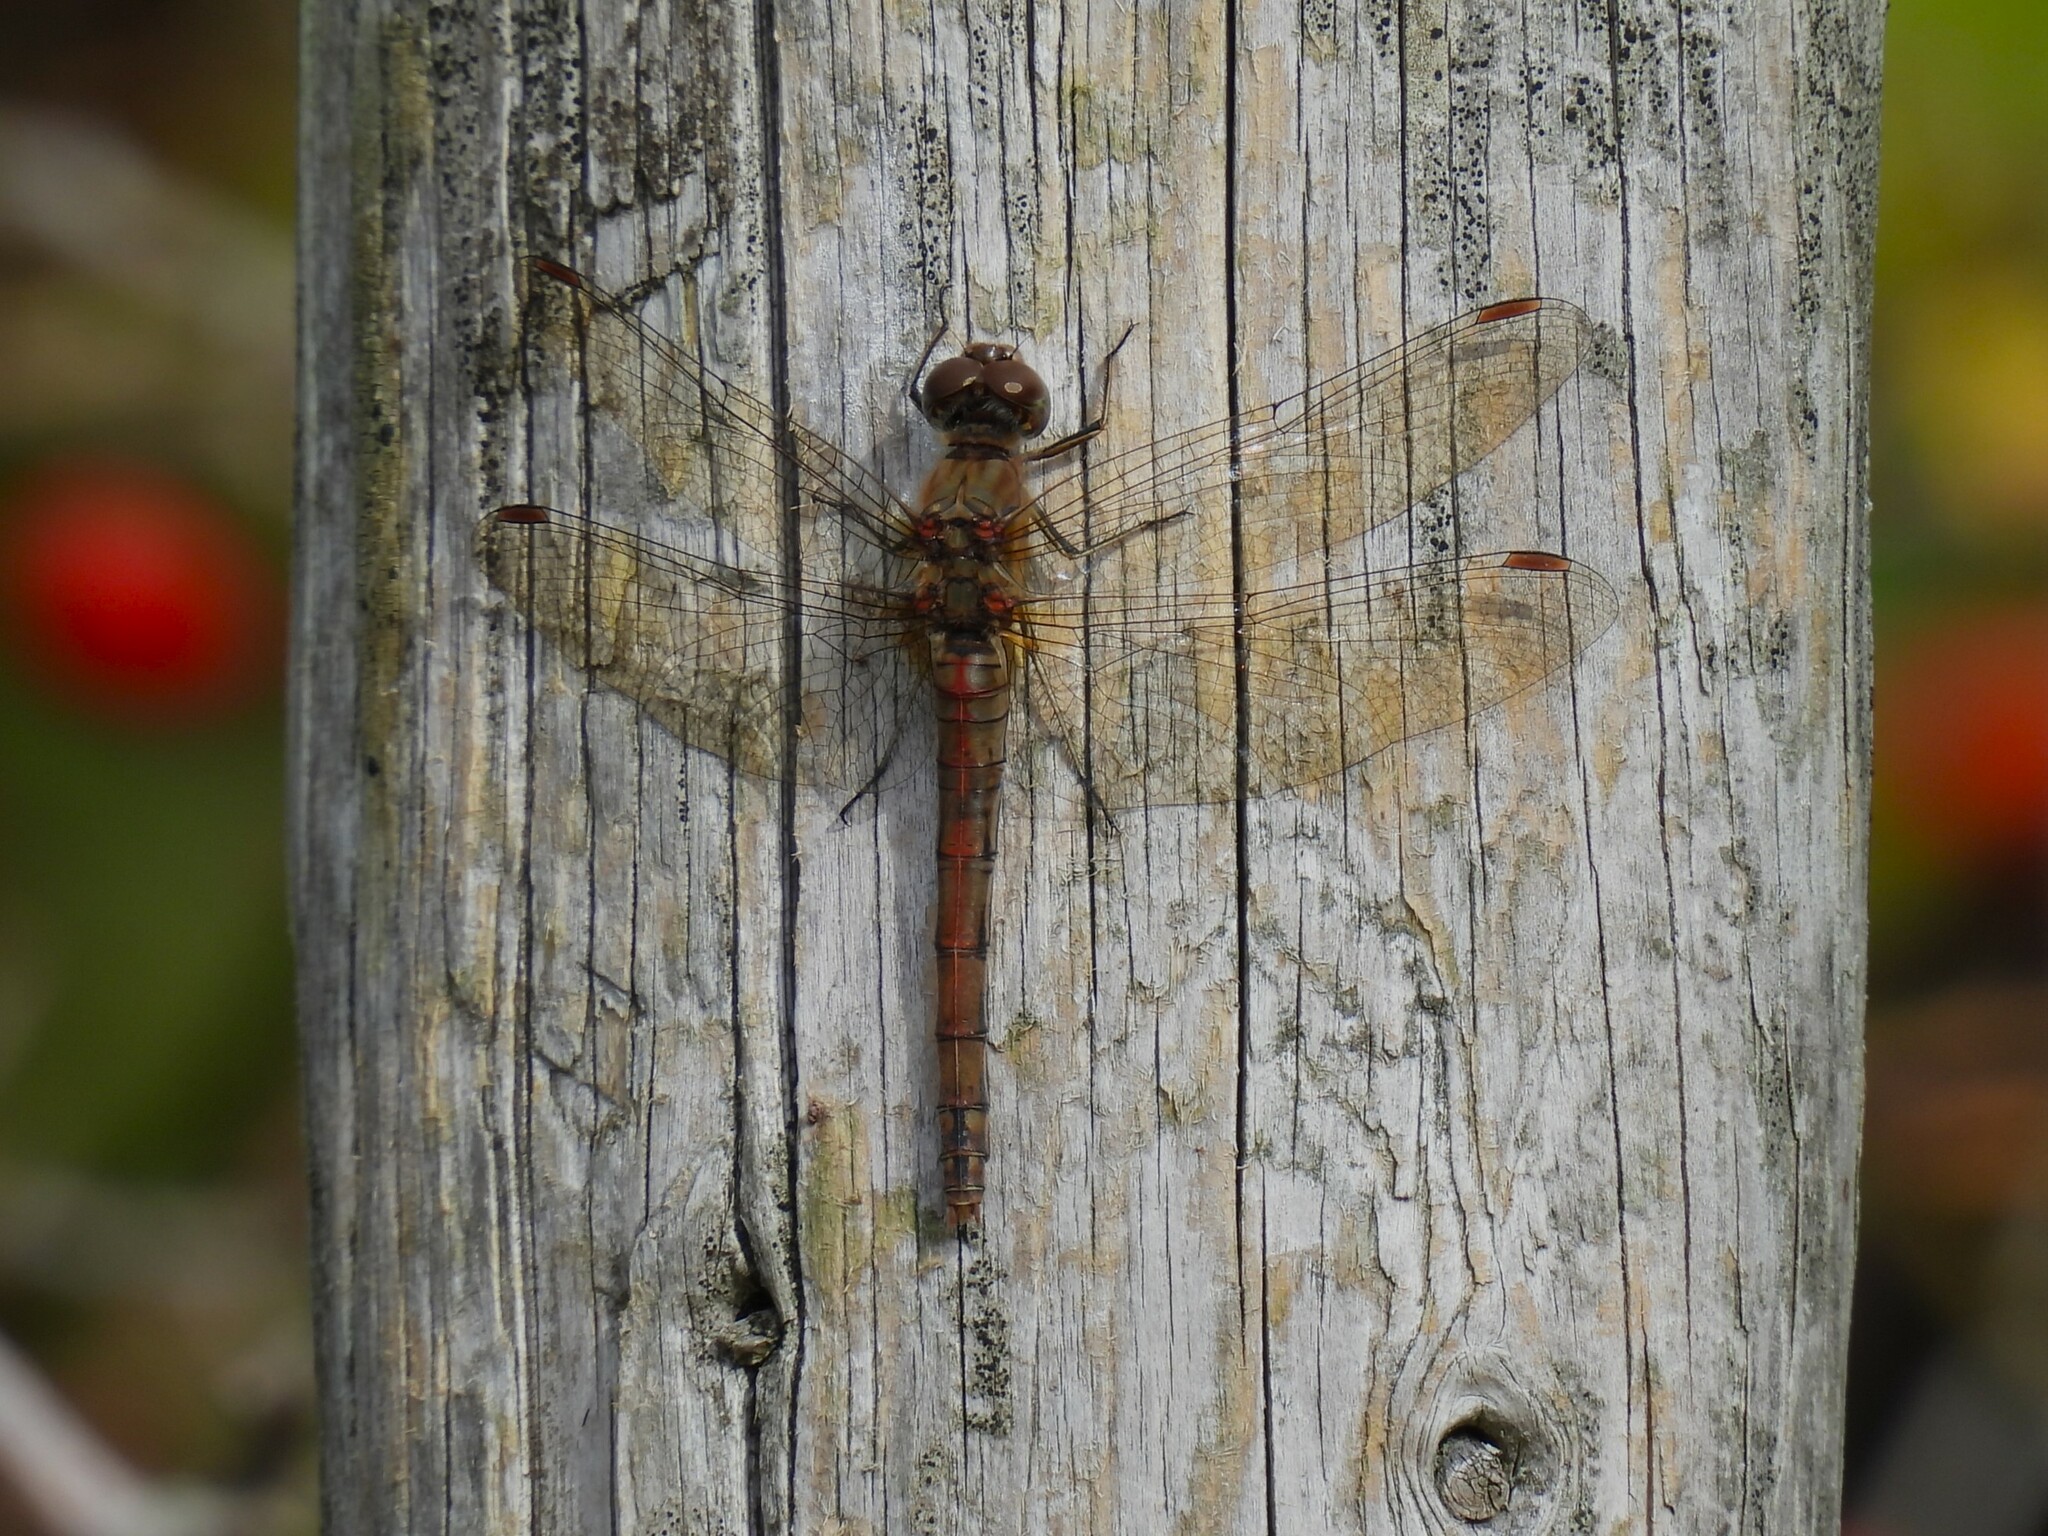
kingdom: Animalia
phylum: Arthropoda
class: Insecta
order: Odonata
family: Libellulidae
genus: Sympetrum
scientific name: Sympetrum striolatum
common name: Common darter
